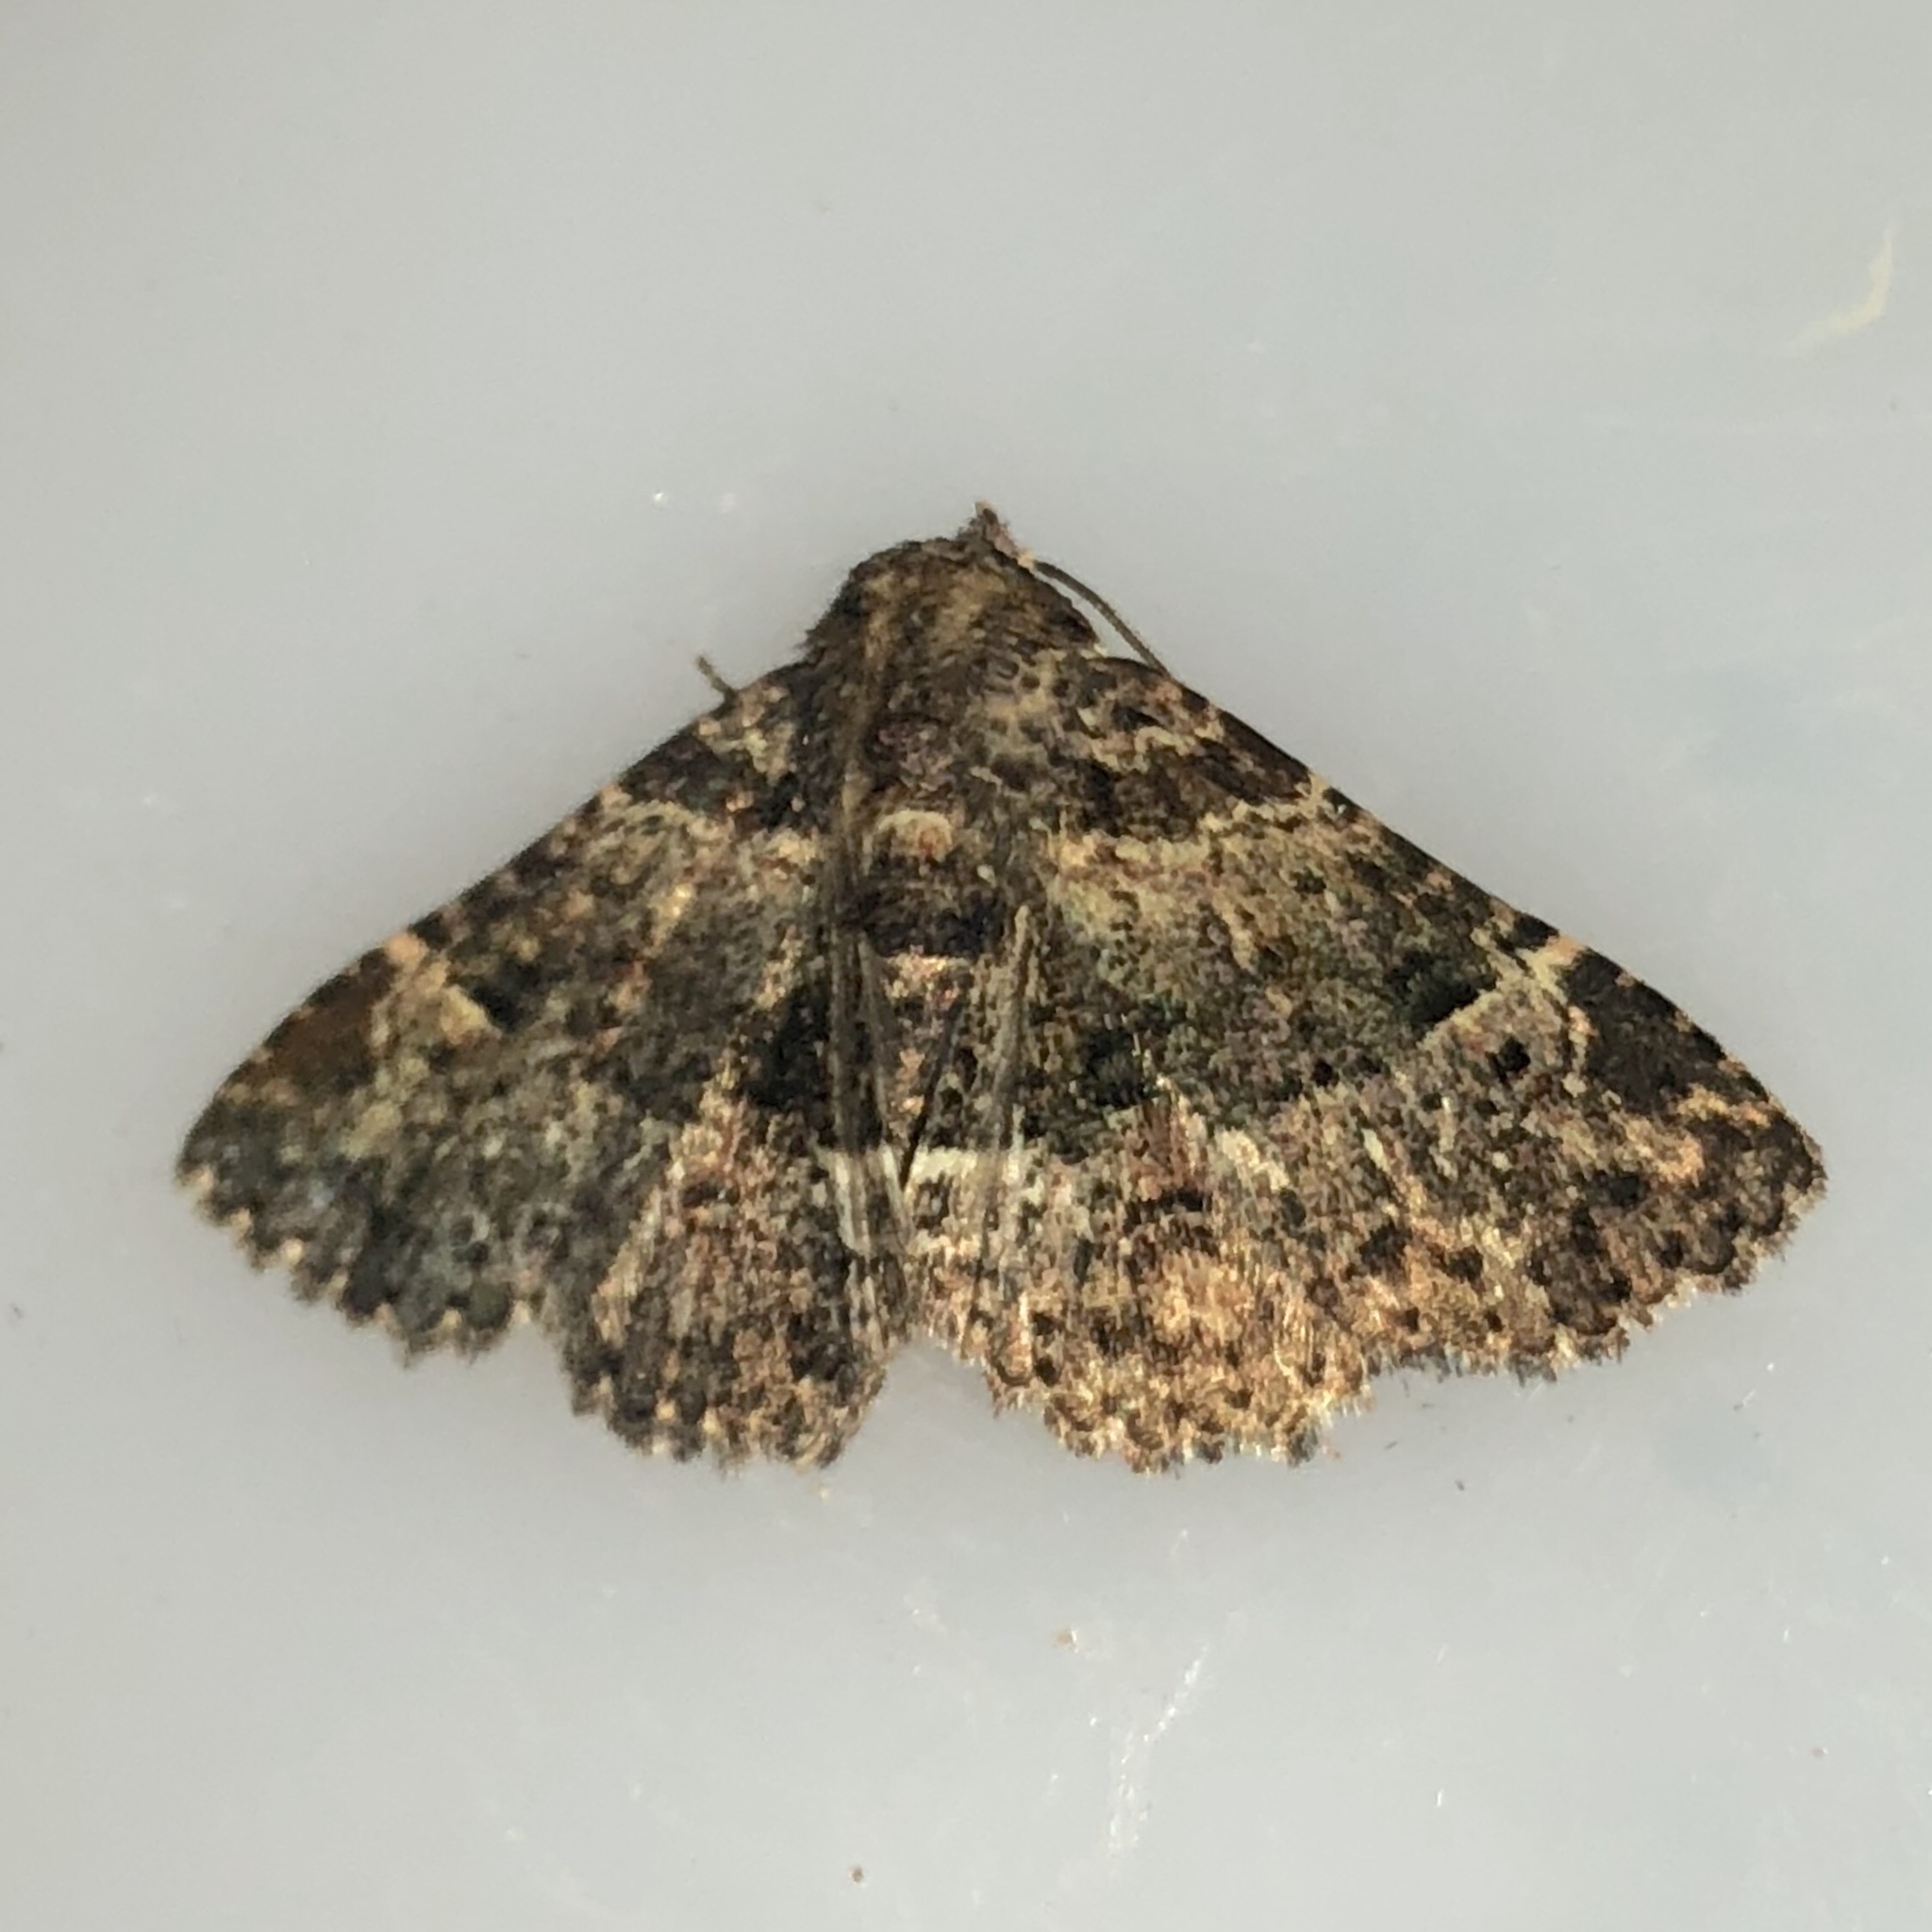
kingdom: Animalia
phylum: Arthropoda
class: Insecta
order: Lepidoptera
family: Erebidae
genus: Metalectra
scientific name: Metalectra discalis
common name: Common fungus moth
